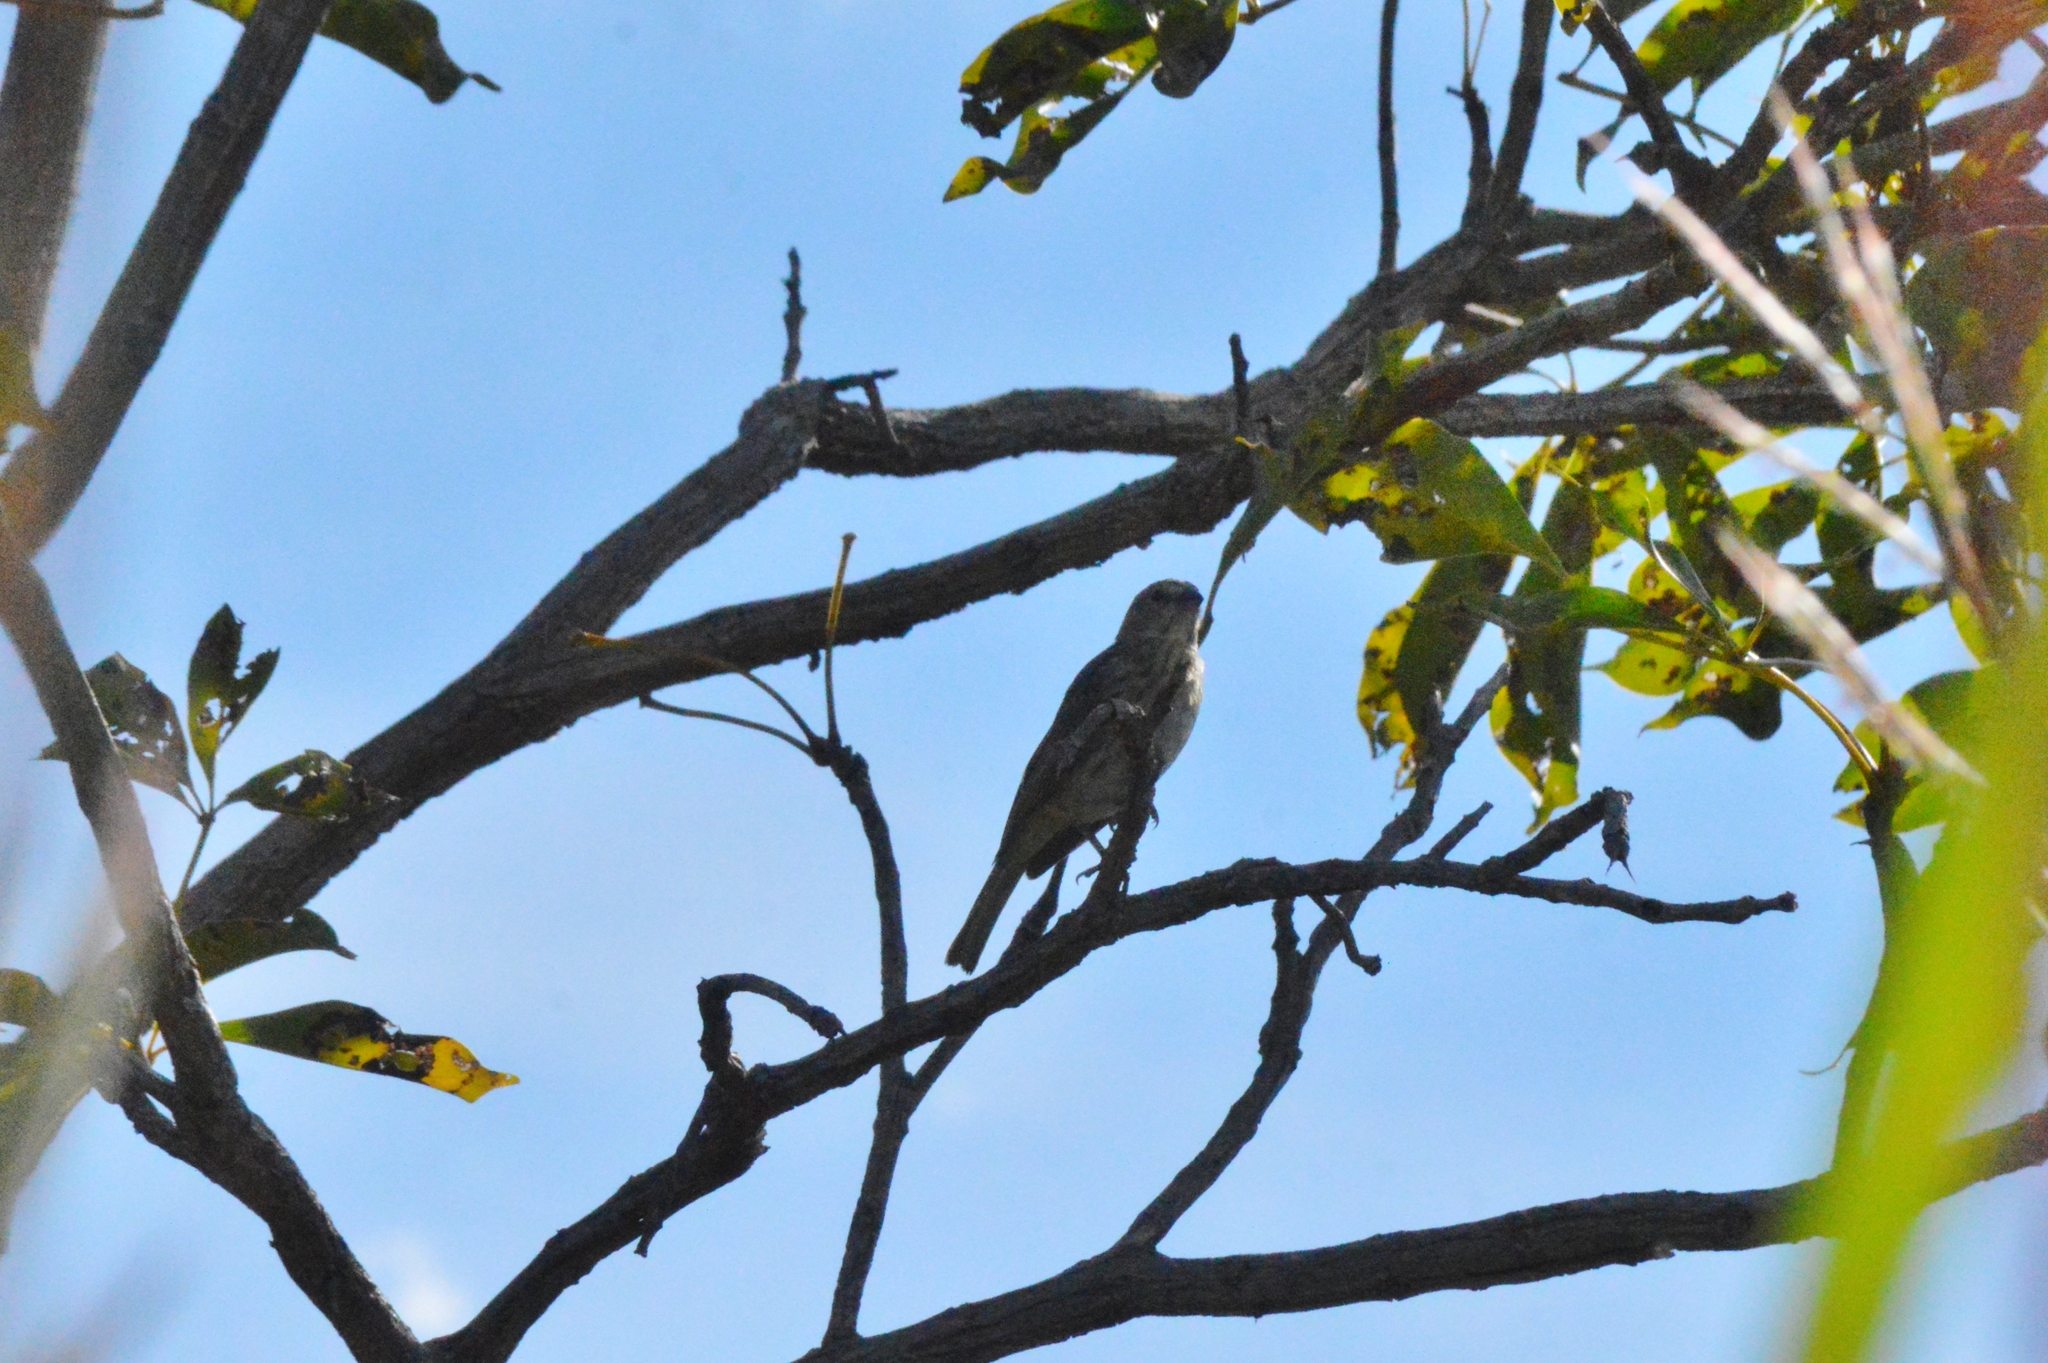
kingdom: Animalia
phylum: Chordata
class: Aves
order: Passeriformes
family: Thraupidae
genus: Sicalis
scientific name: Sicalis flaveola
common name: Saffron finch
